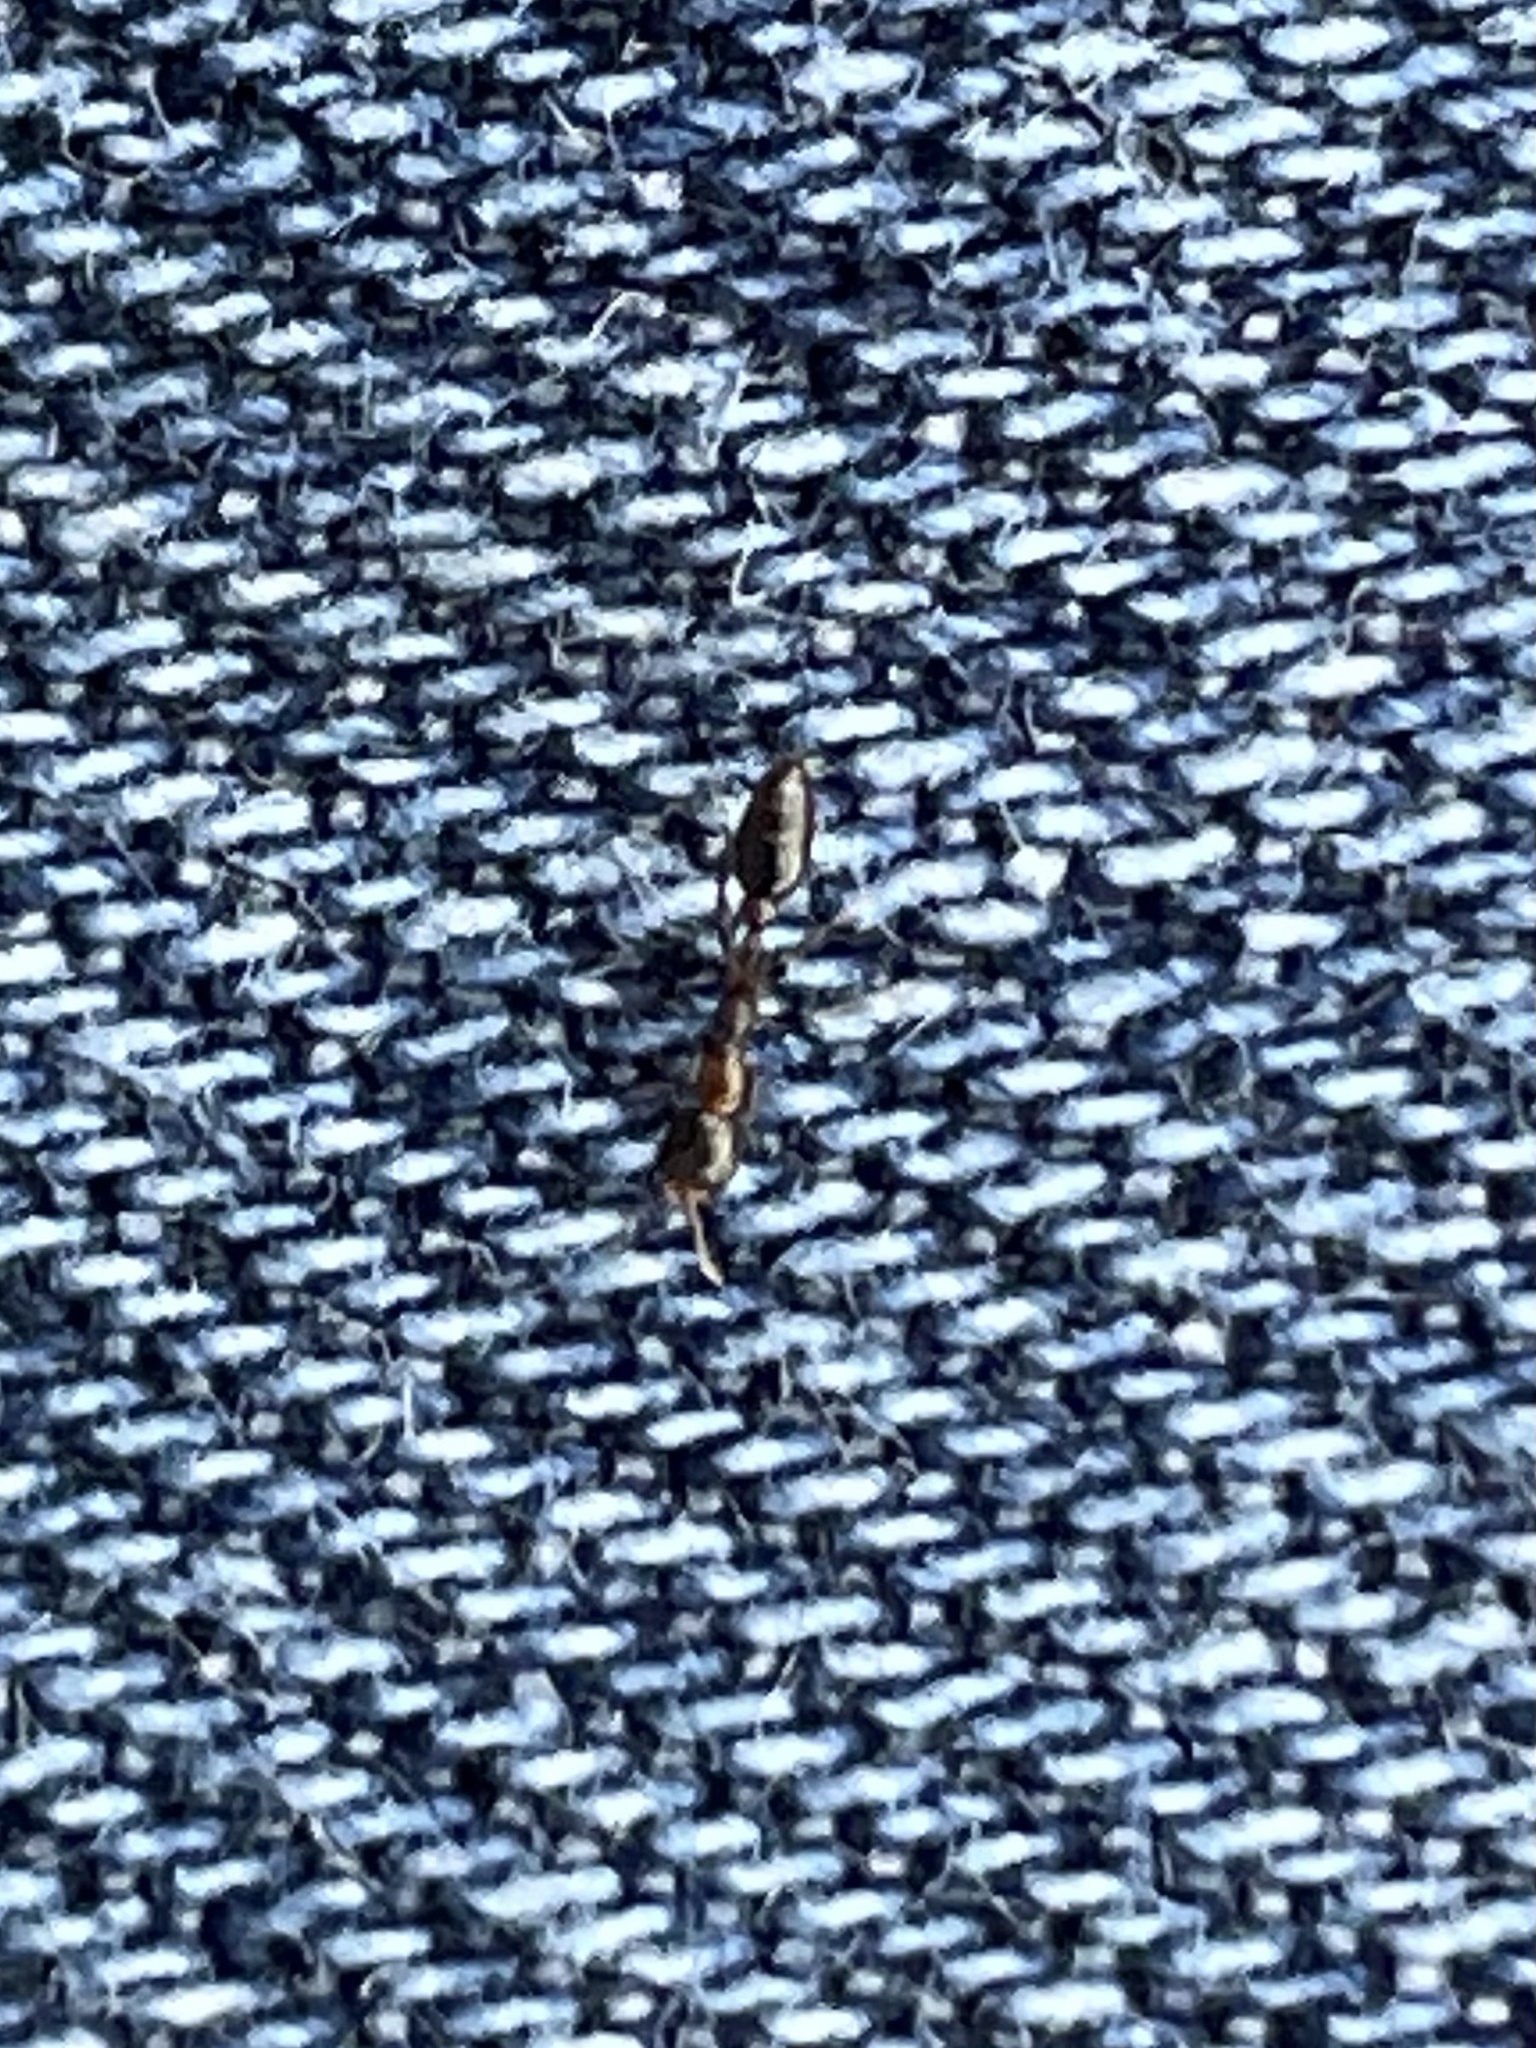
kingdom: Animalia
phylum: Arthropoda
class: Insecta
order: Hymenoptera
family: Formicidae
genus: Pseudomyrmex
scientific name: Pseudomyrmex ejectus
